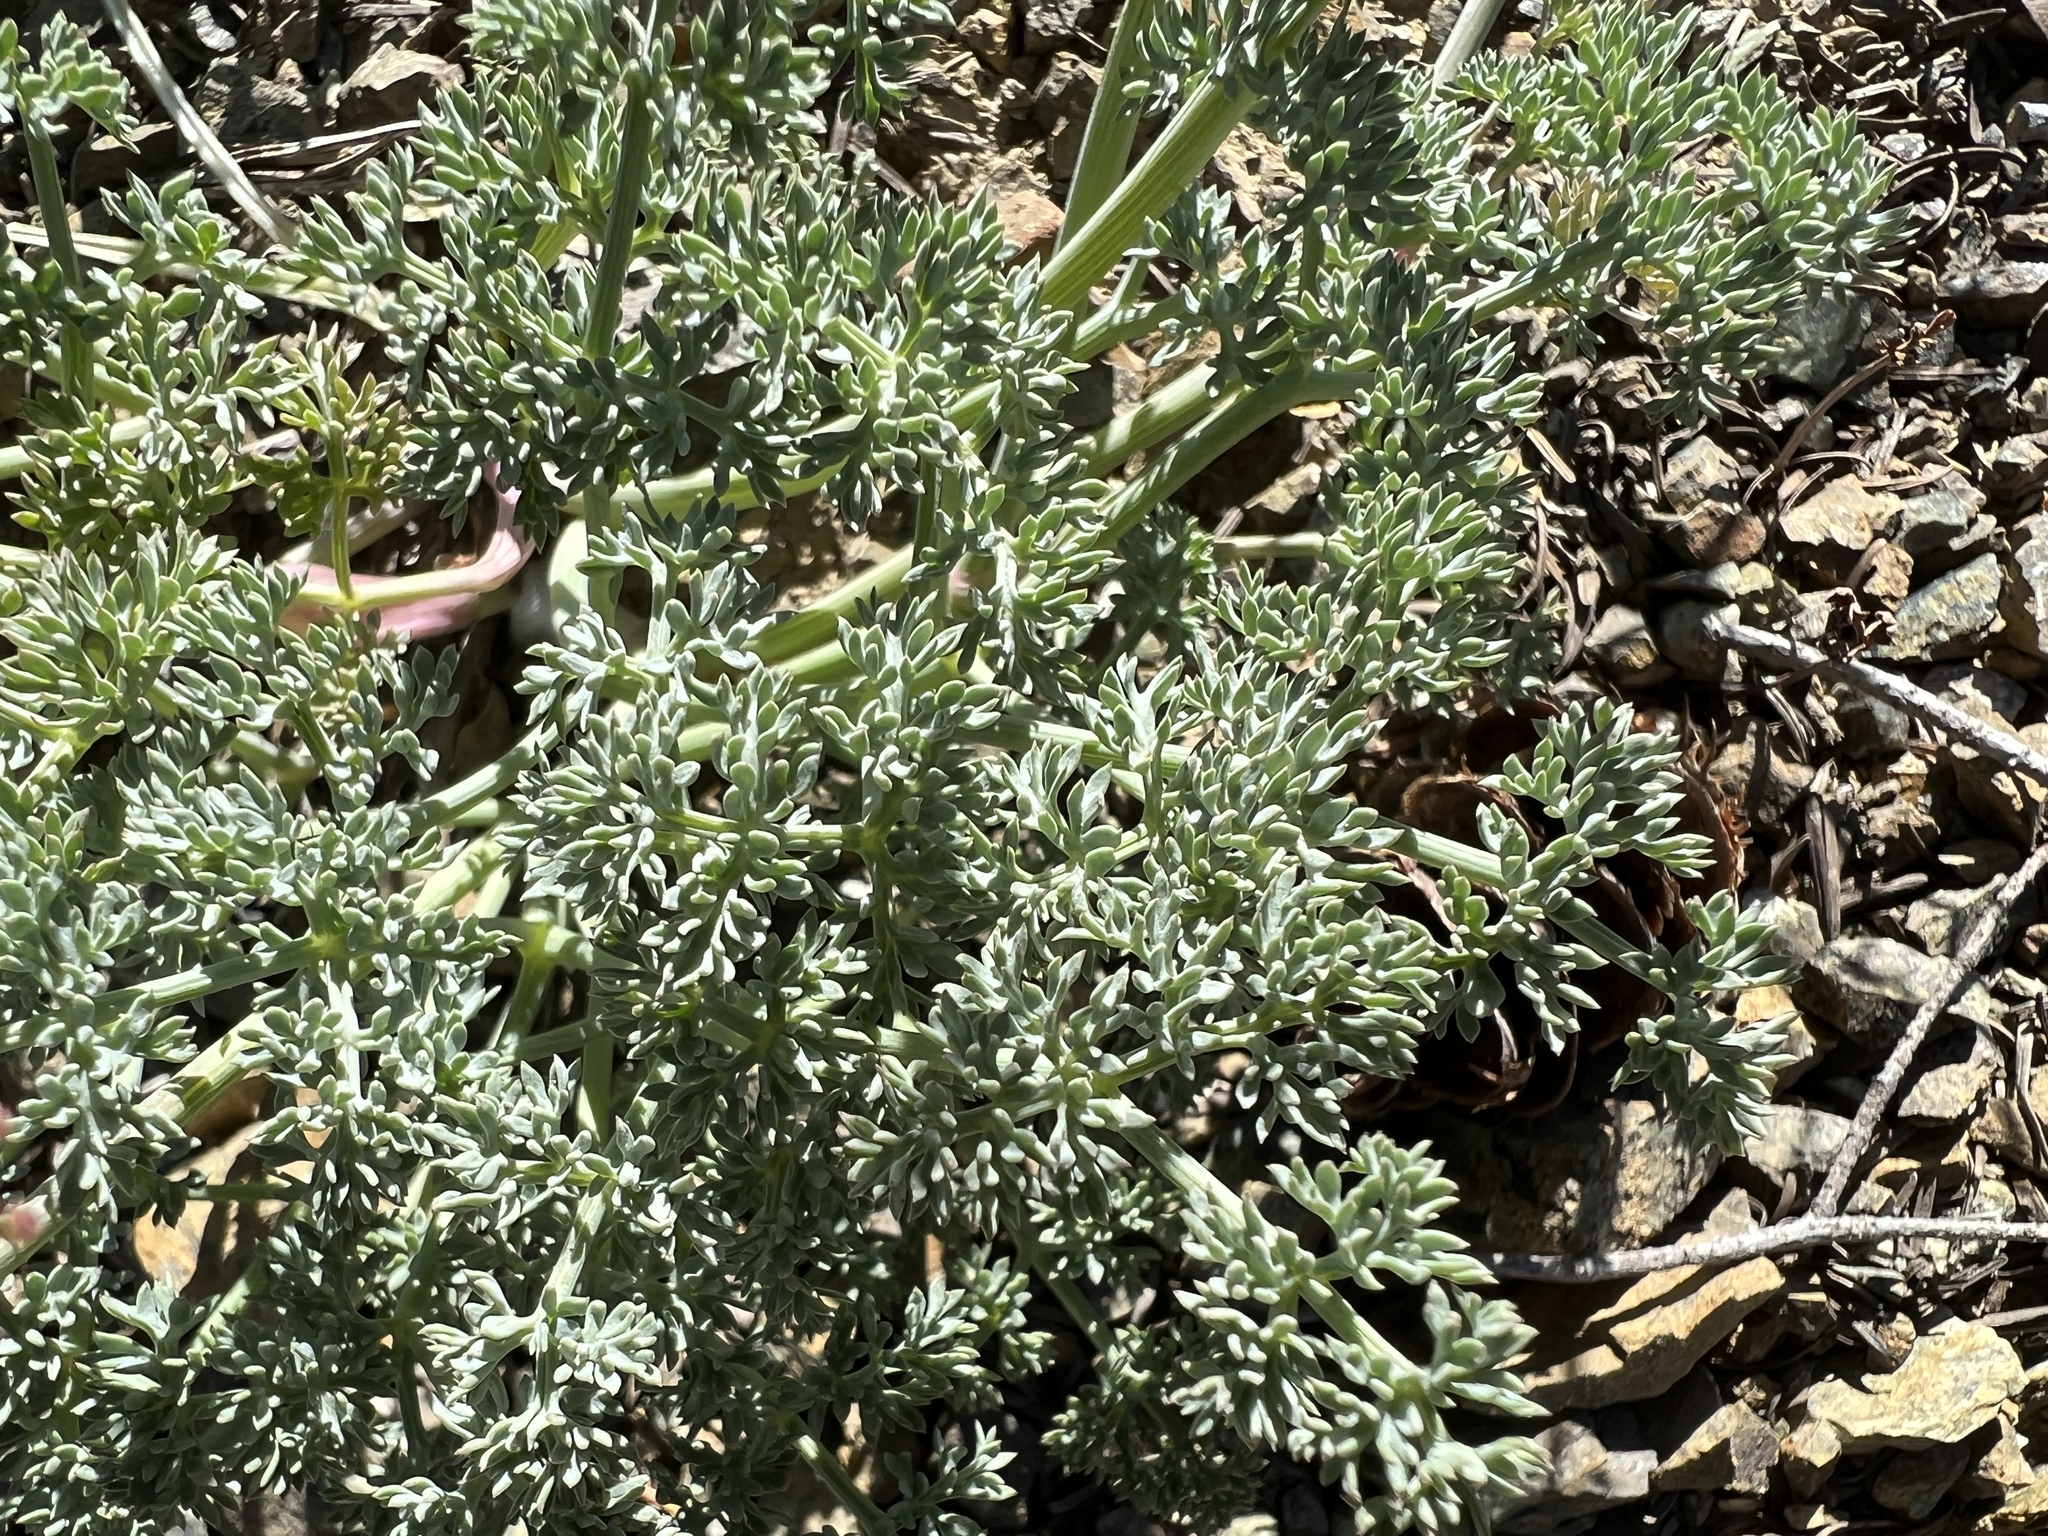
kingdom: Plantae
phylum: Tracheophyta
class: Magnoliopsida
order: Apiales
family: Apiaceae
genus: Lomatium
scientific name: Lomatium cuspidatum
